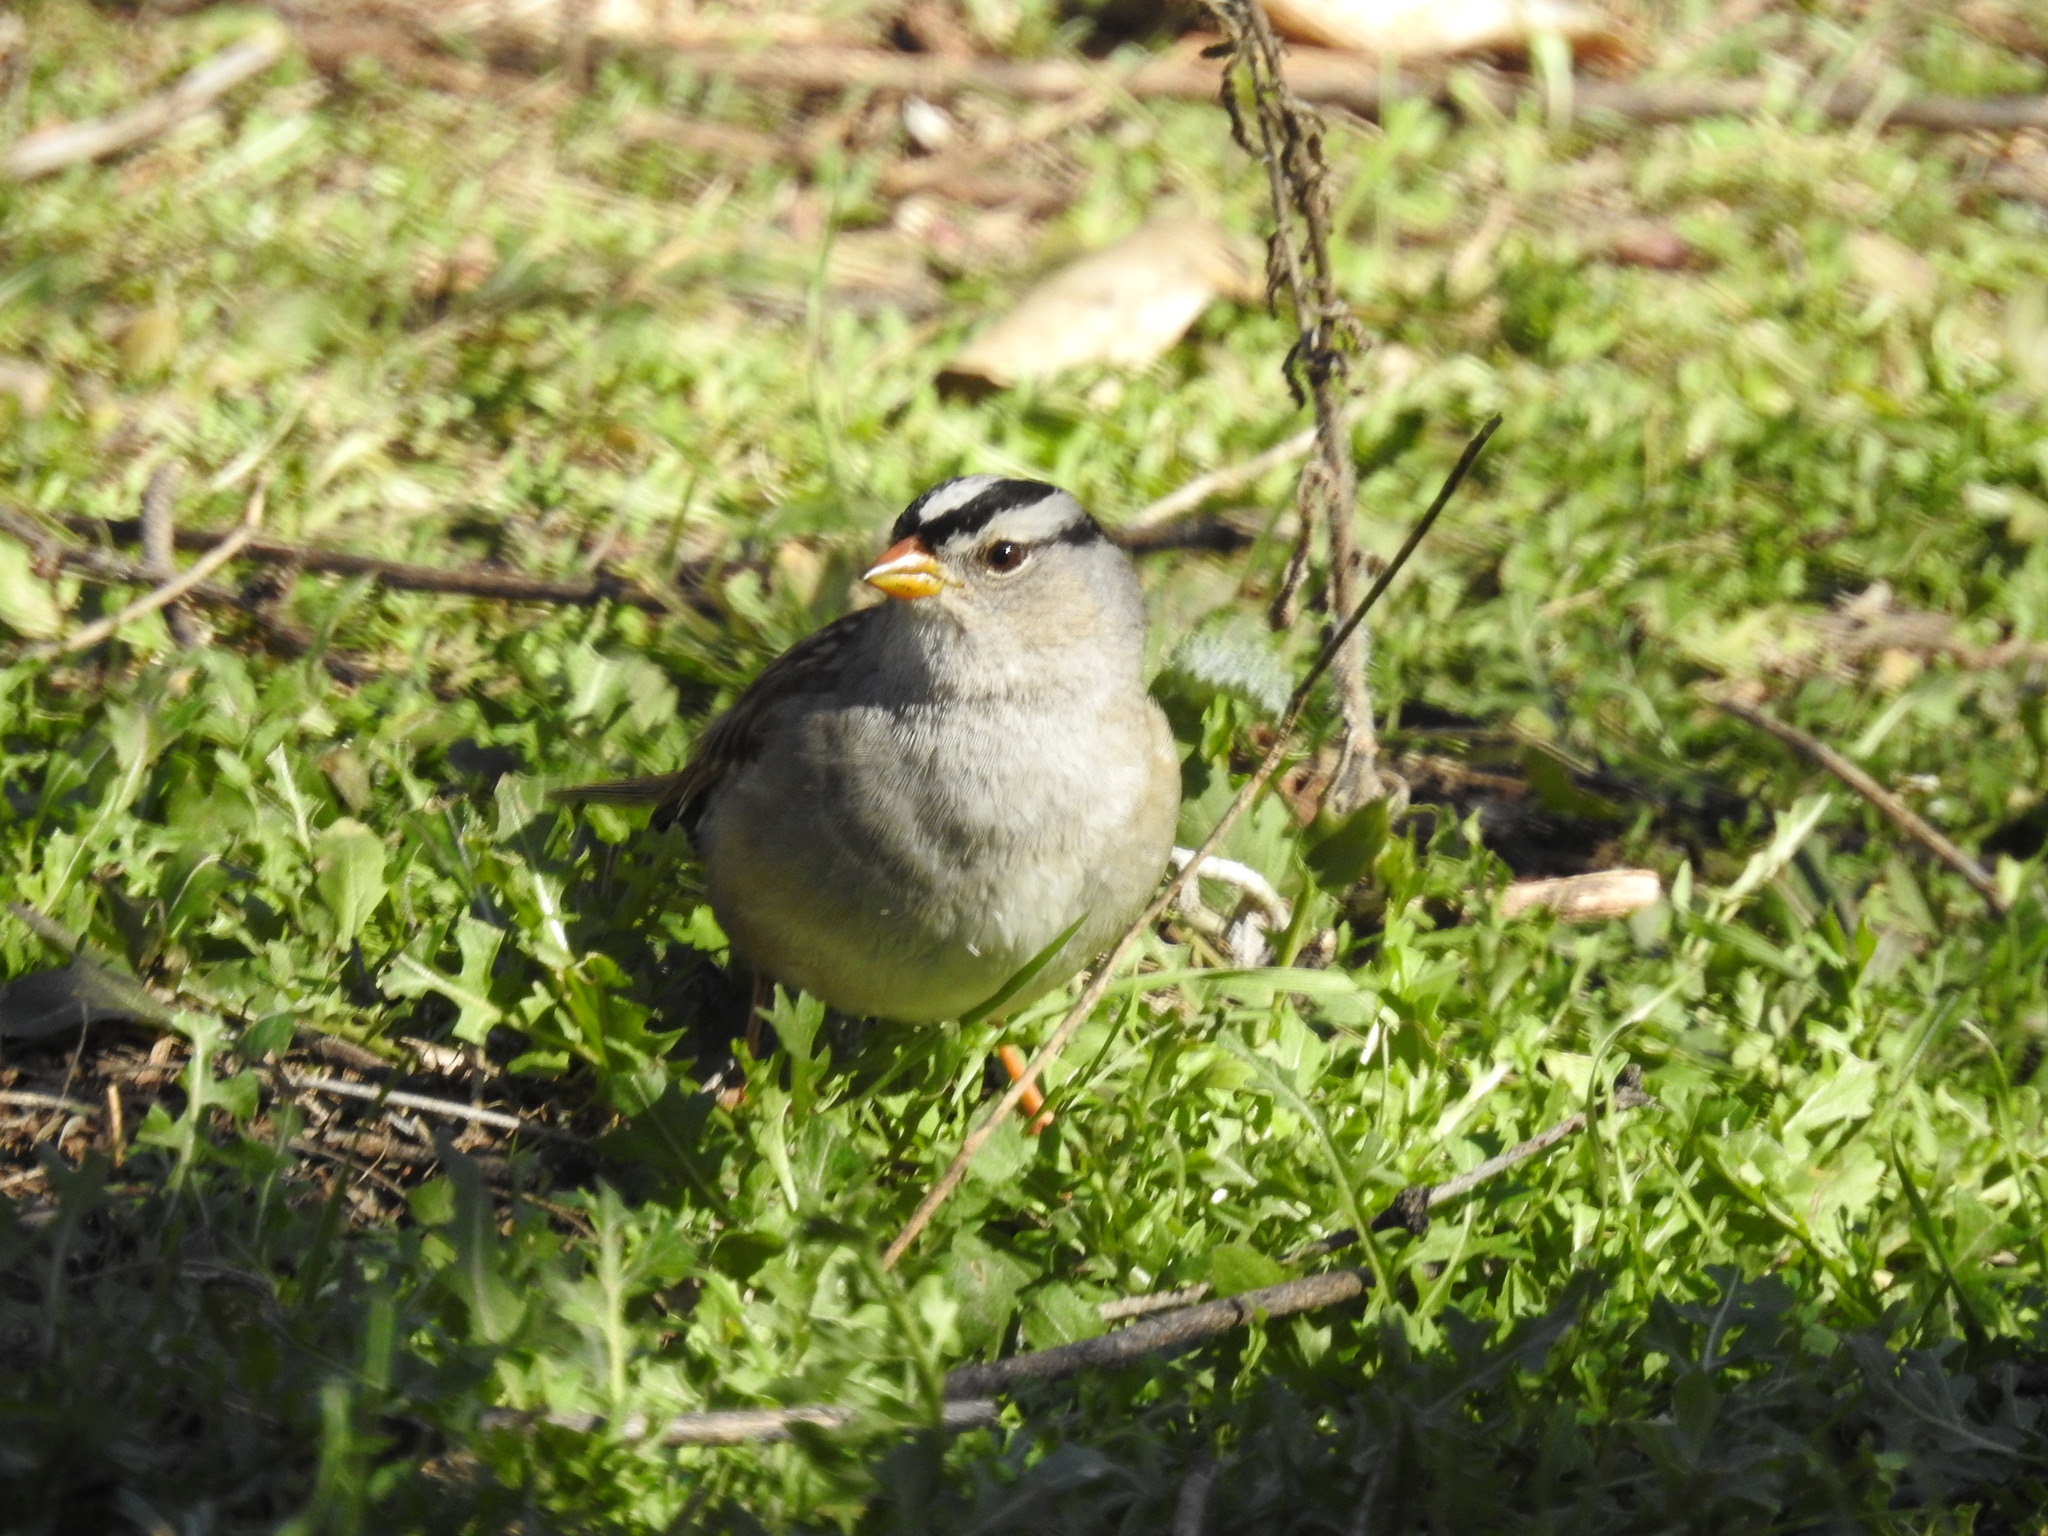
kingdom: Animalia
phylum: Chordata
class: Aves
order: Passeriformes
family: Passerellidae
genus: Zonotrichia
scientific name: Zonotrichia leucophrys
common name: White-crowned sparrow
